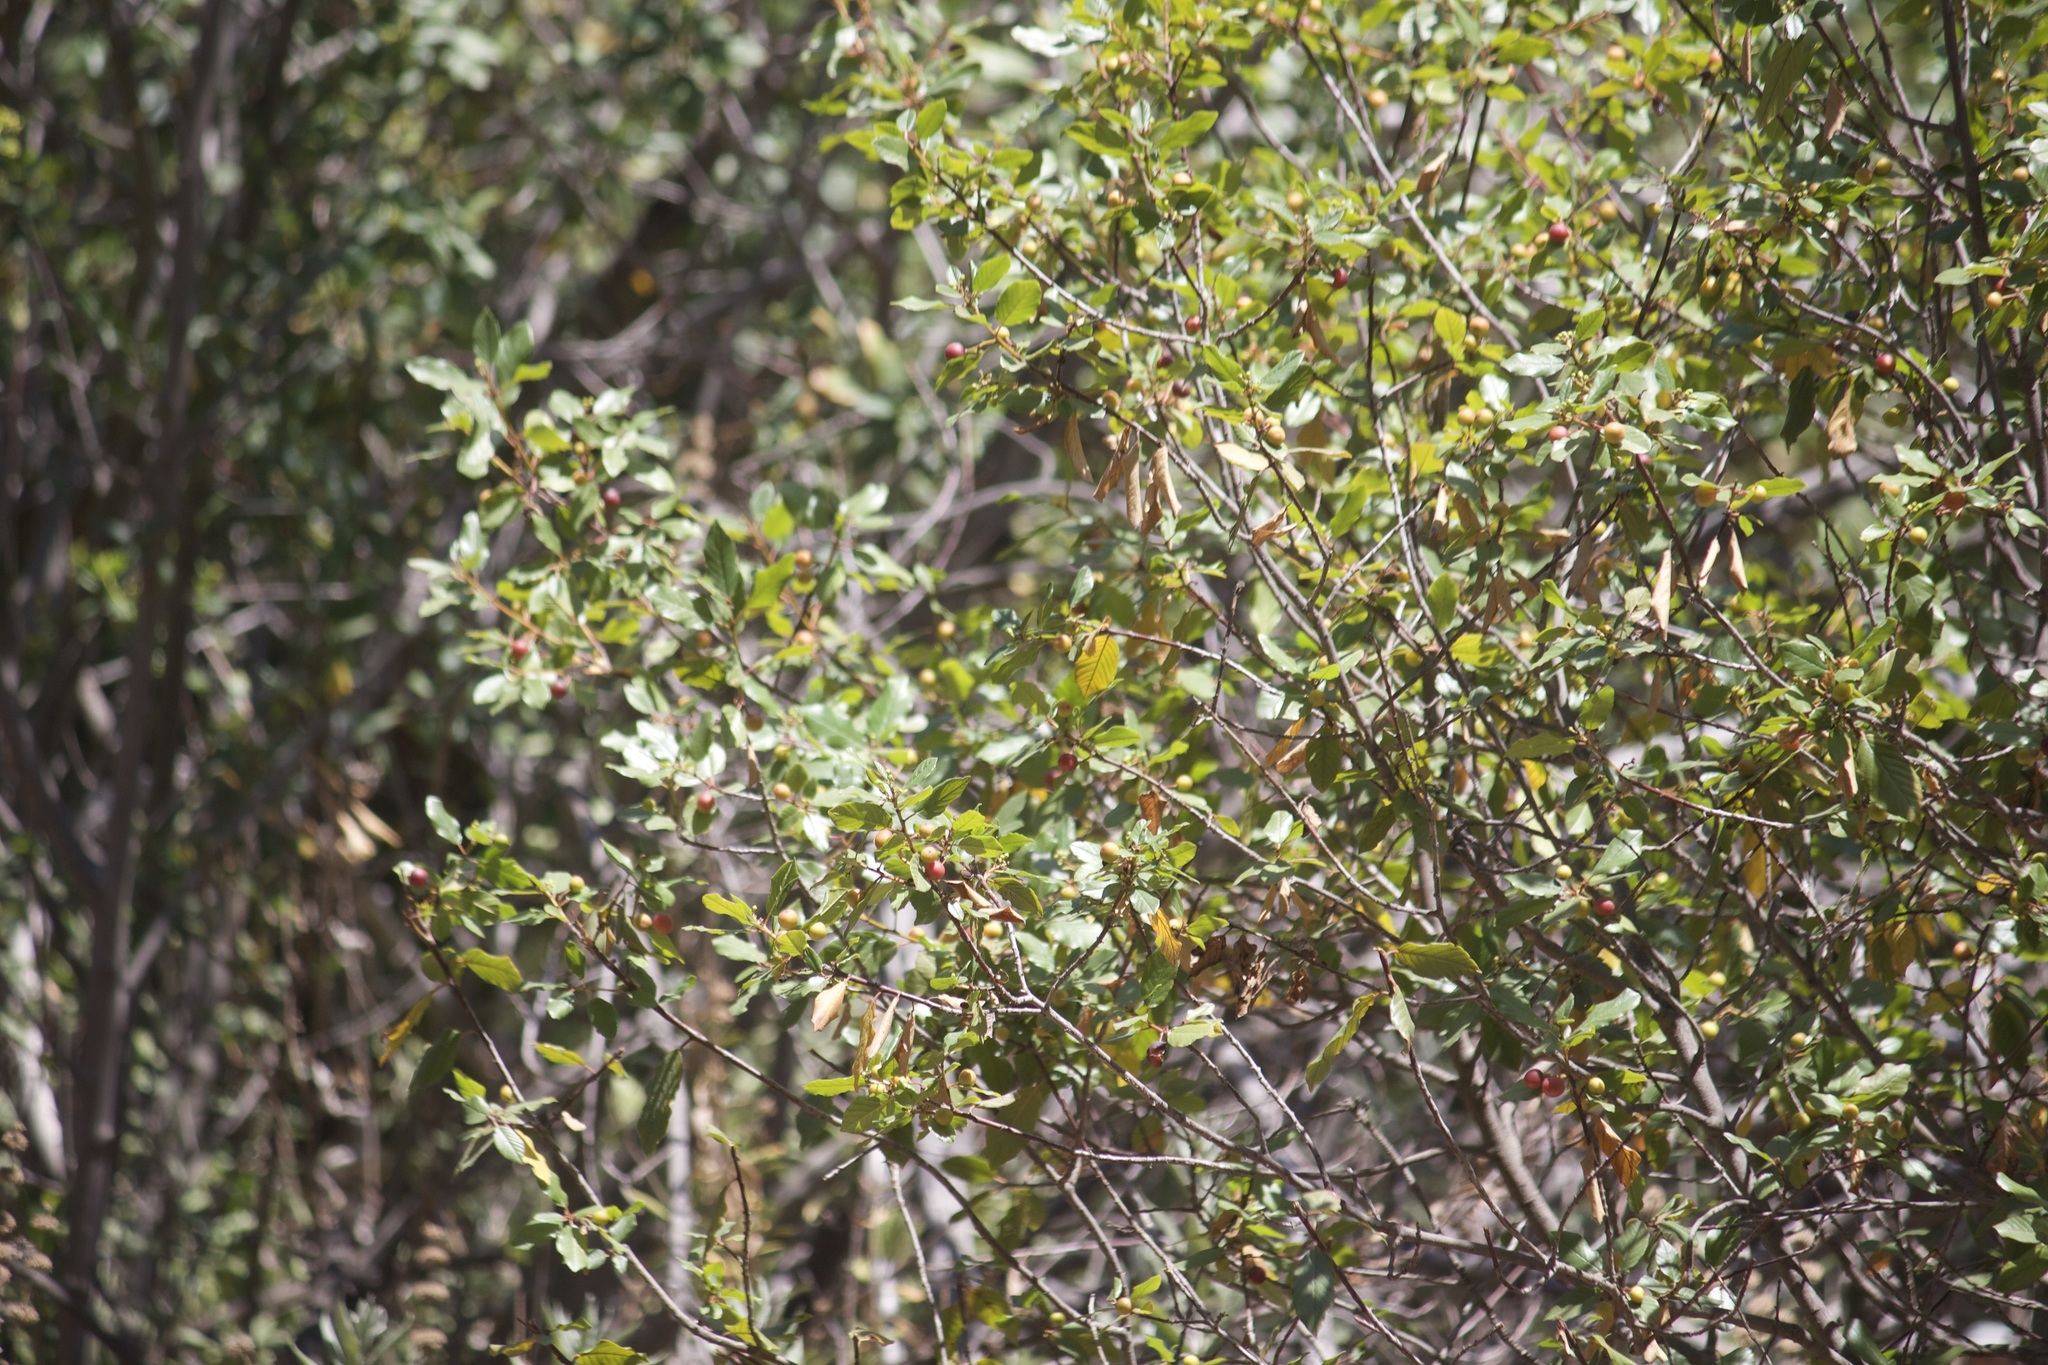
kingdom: Plantae
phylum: Tracheophyta
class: Magnoliopsida
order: Rosales
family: Rhamnaceae
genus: Frangula
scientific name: Frangula californica
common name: California buckthorn
